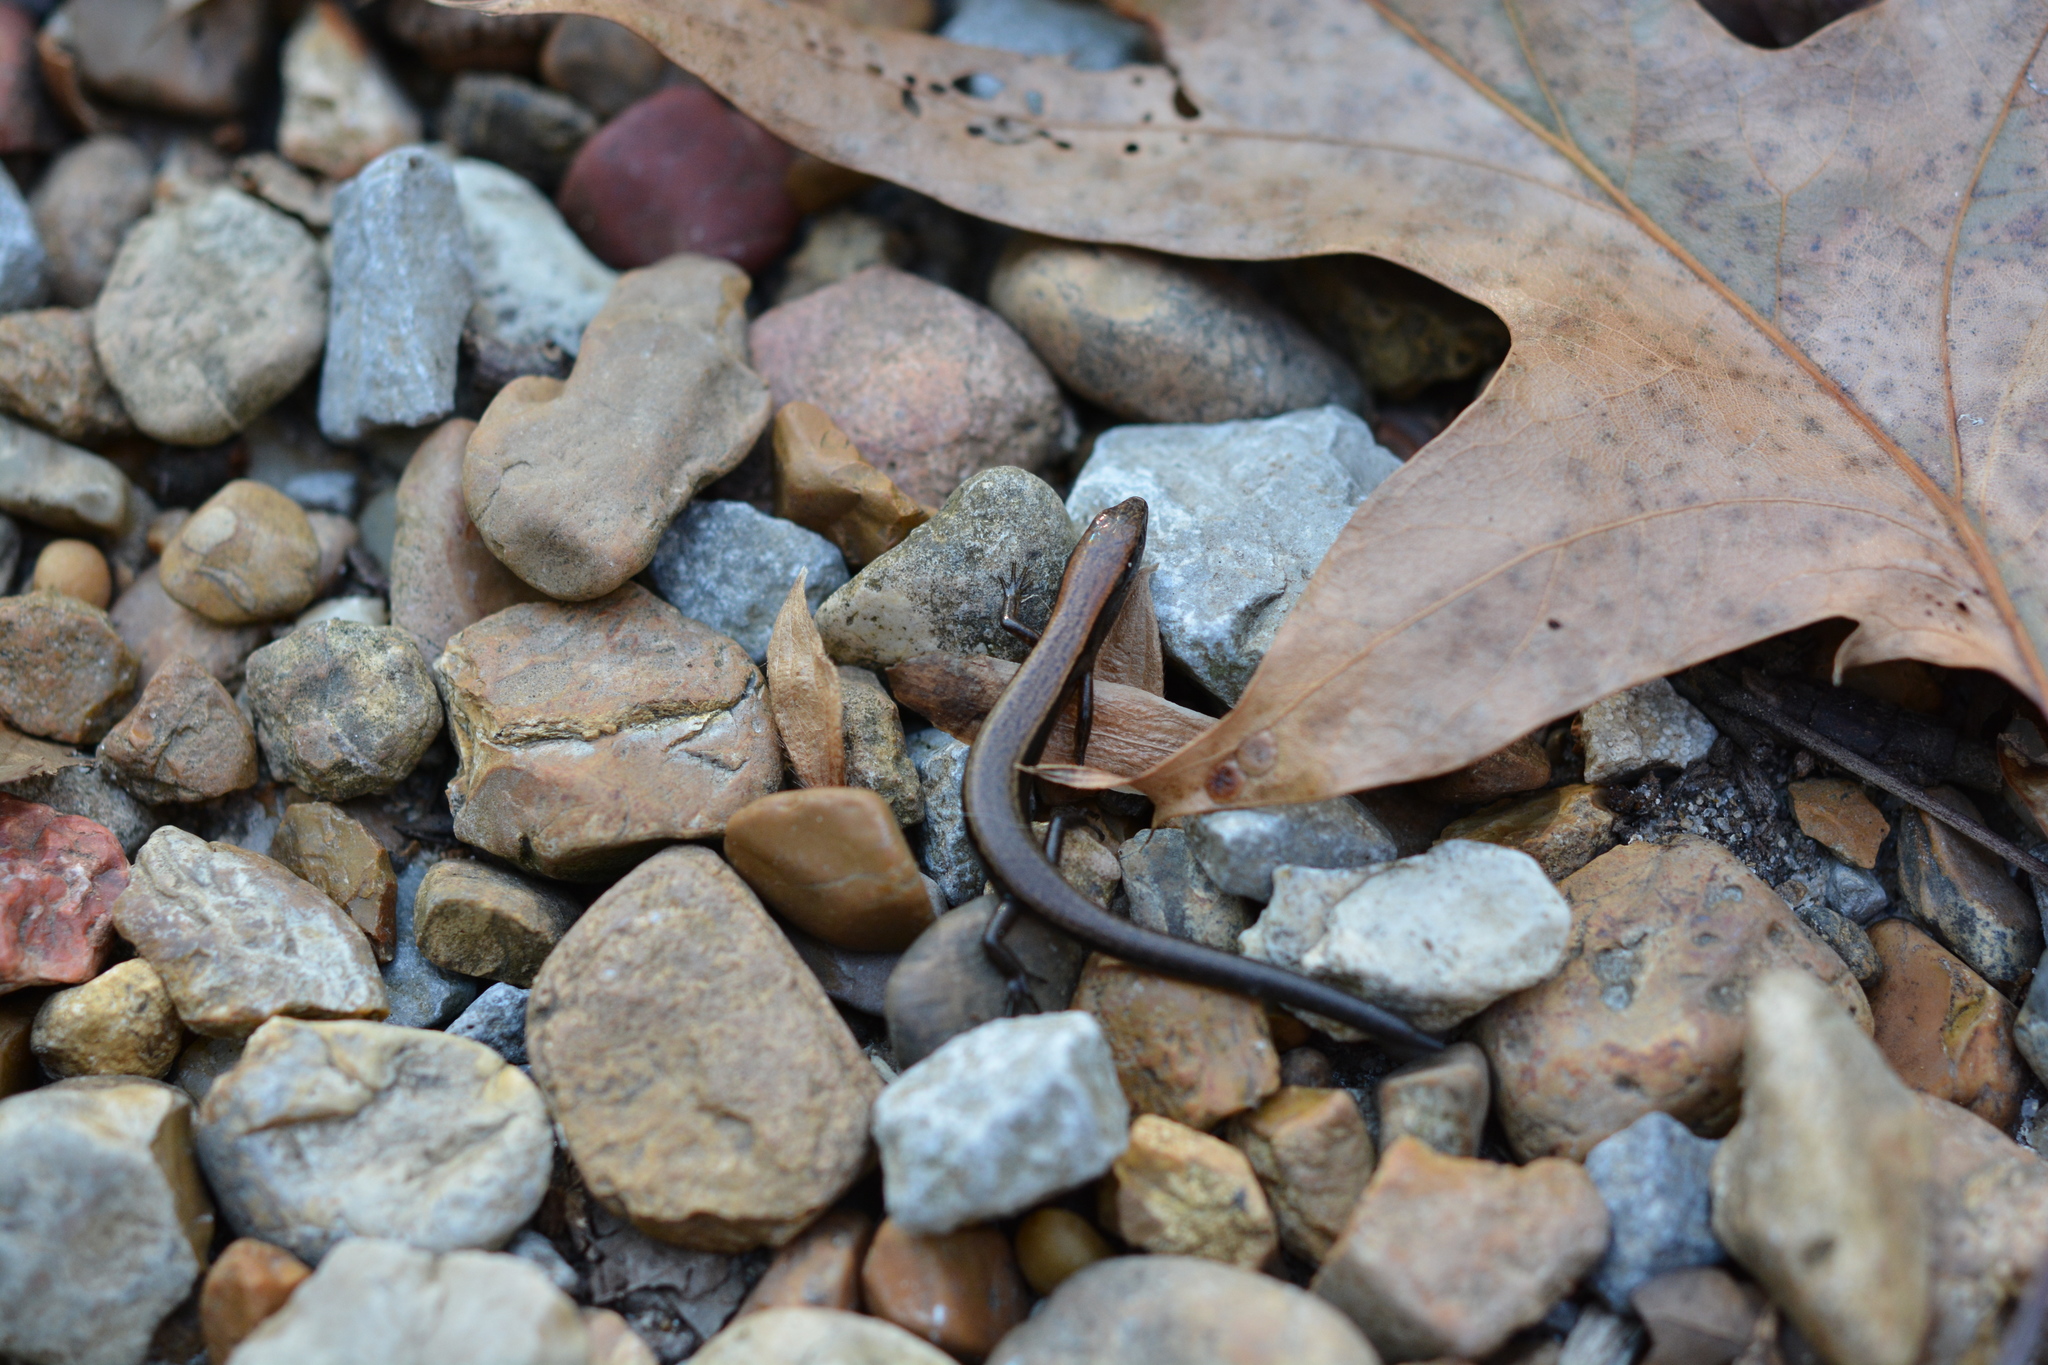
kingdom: Animalia
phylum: Chordata
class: Squamata
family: Scincidae
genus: Scincella
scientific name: Scincella lateralis
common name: Ground skink
